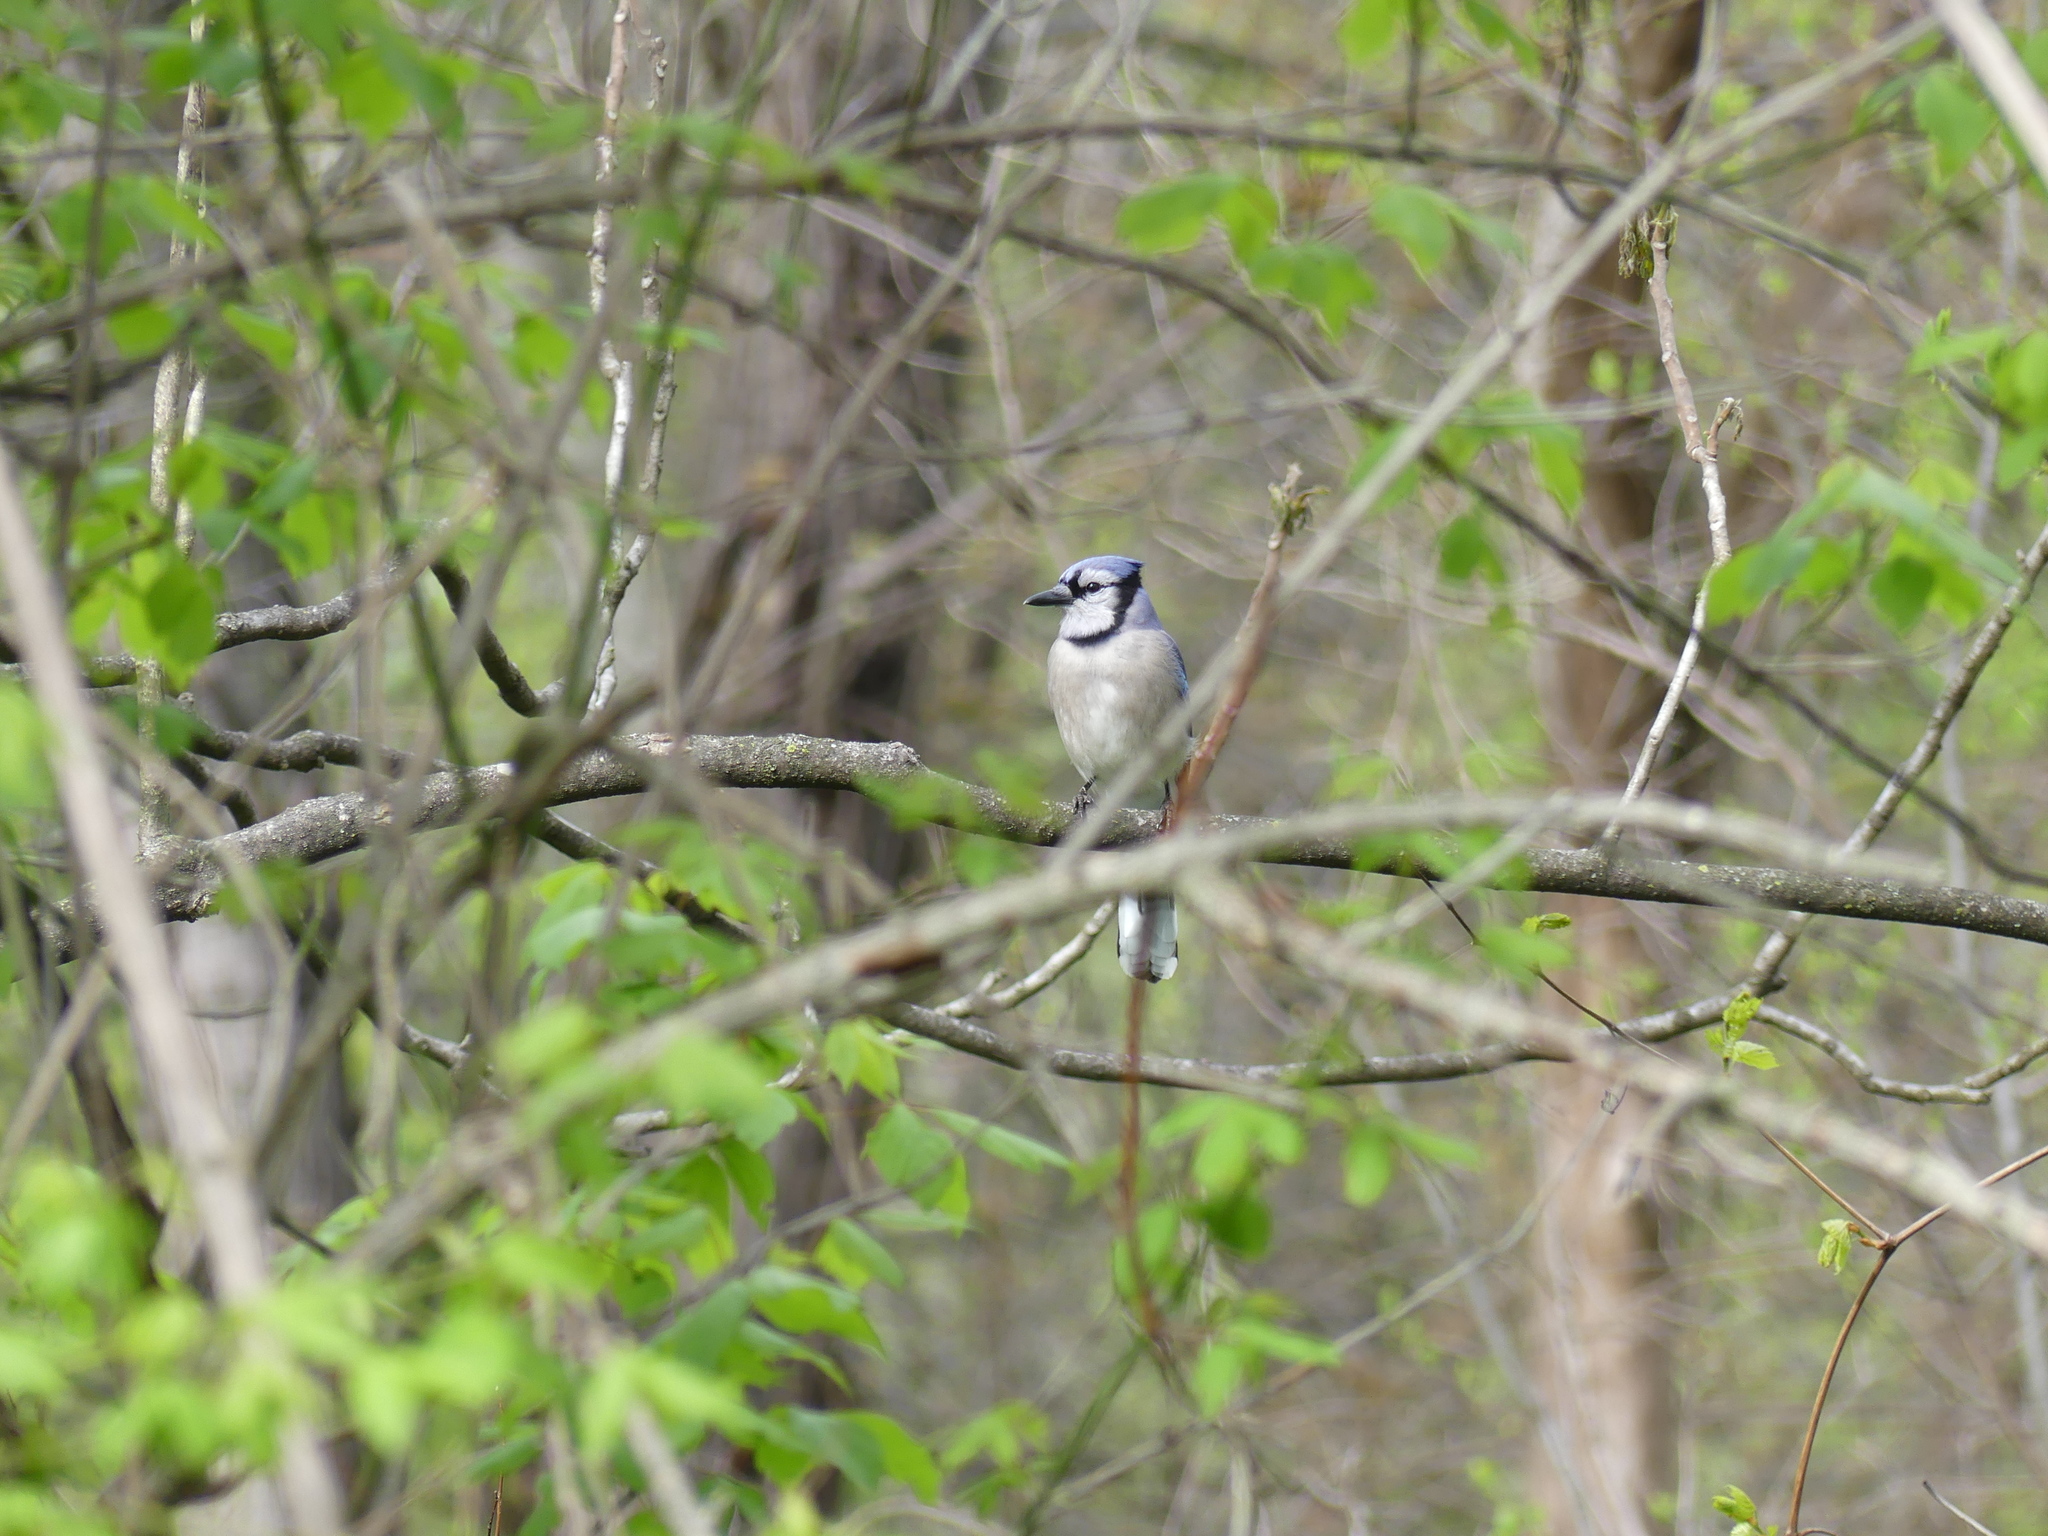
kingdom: Animalia
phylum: Chordata
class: Aves
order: Passeriformes
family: Corvidae
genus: Cyanocitta
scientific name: Cyanocitta cristata
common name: Blue jay
